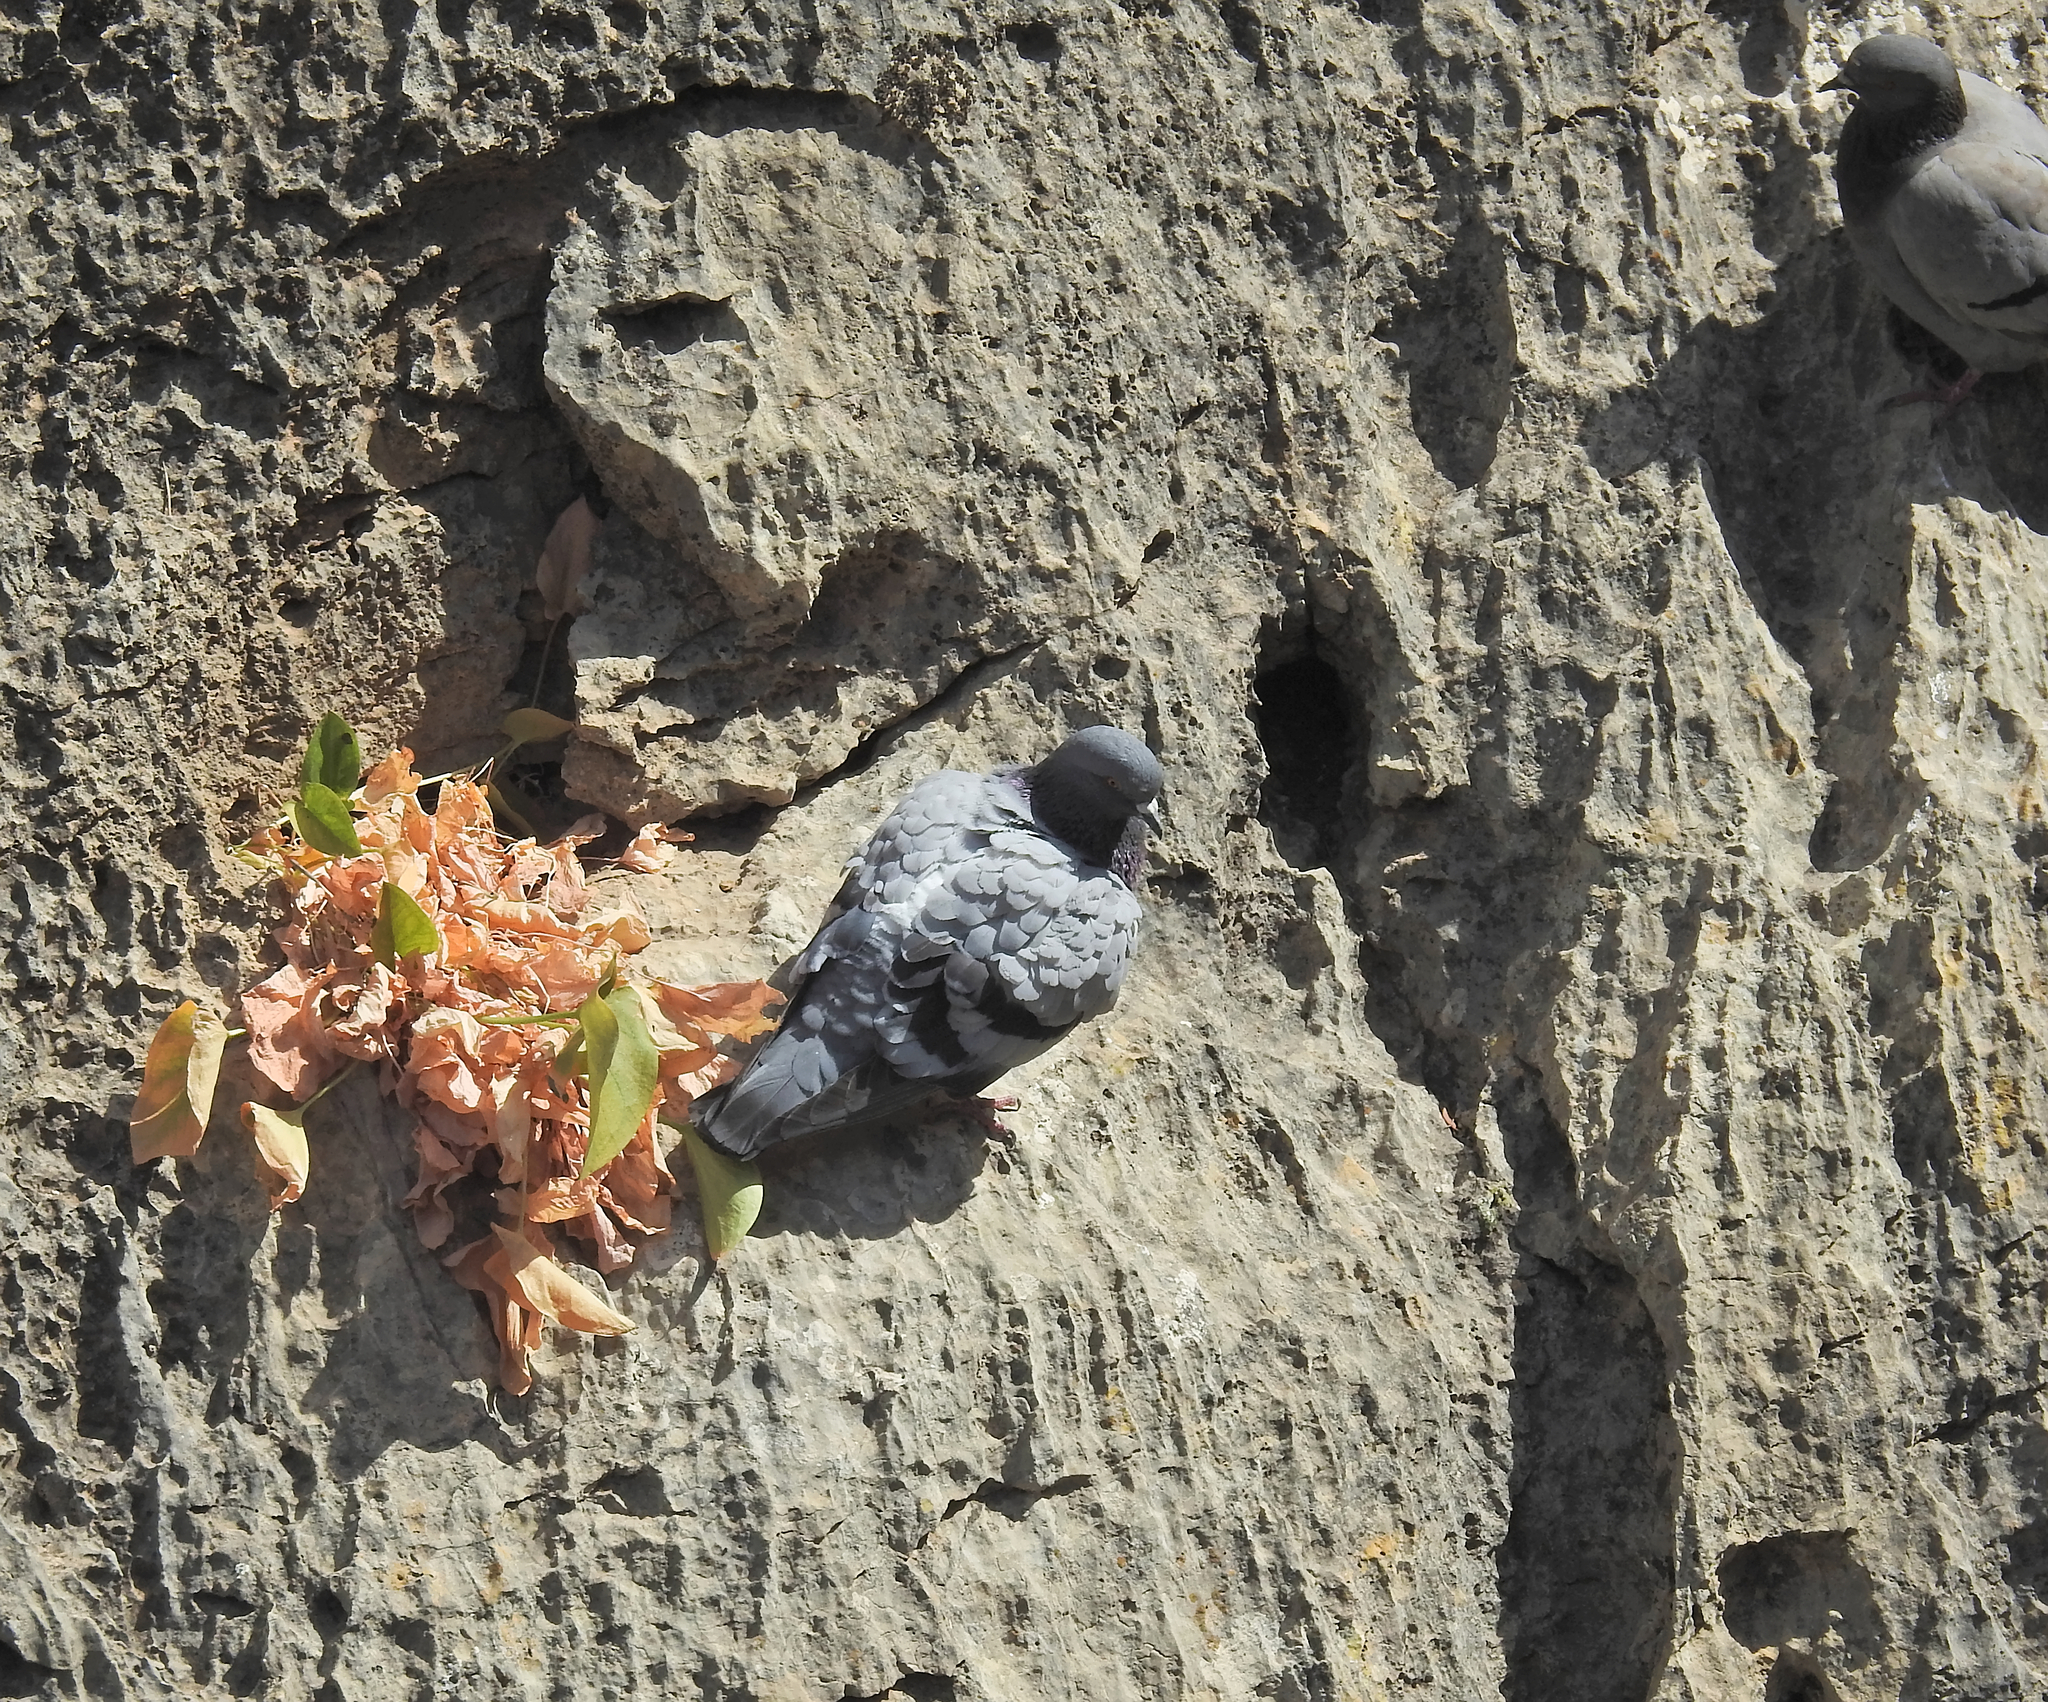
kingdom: Animalia
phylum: Chordata
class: Aves
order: Columbiformes
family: Columbidae
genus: Columba
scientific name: Columba livia
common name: Rock pigeon
